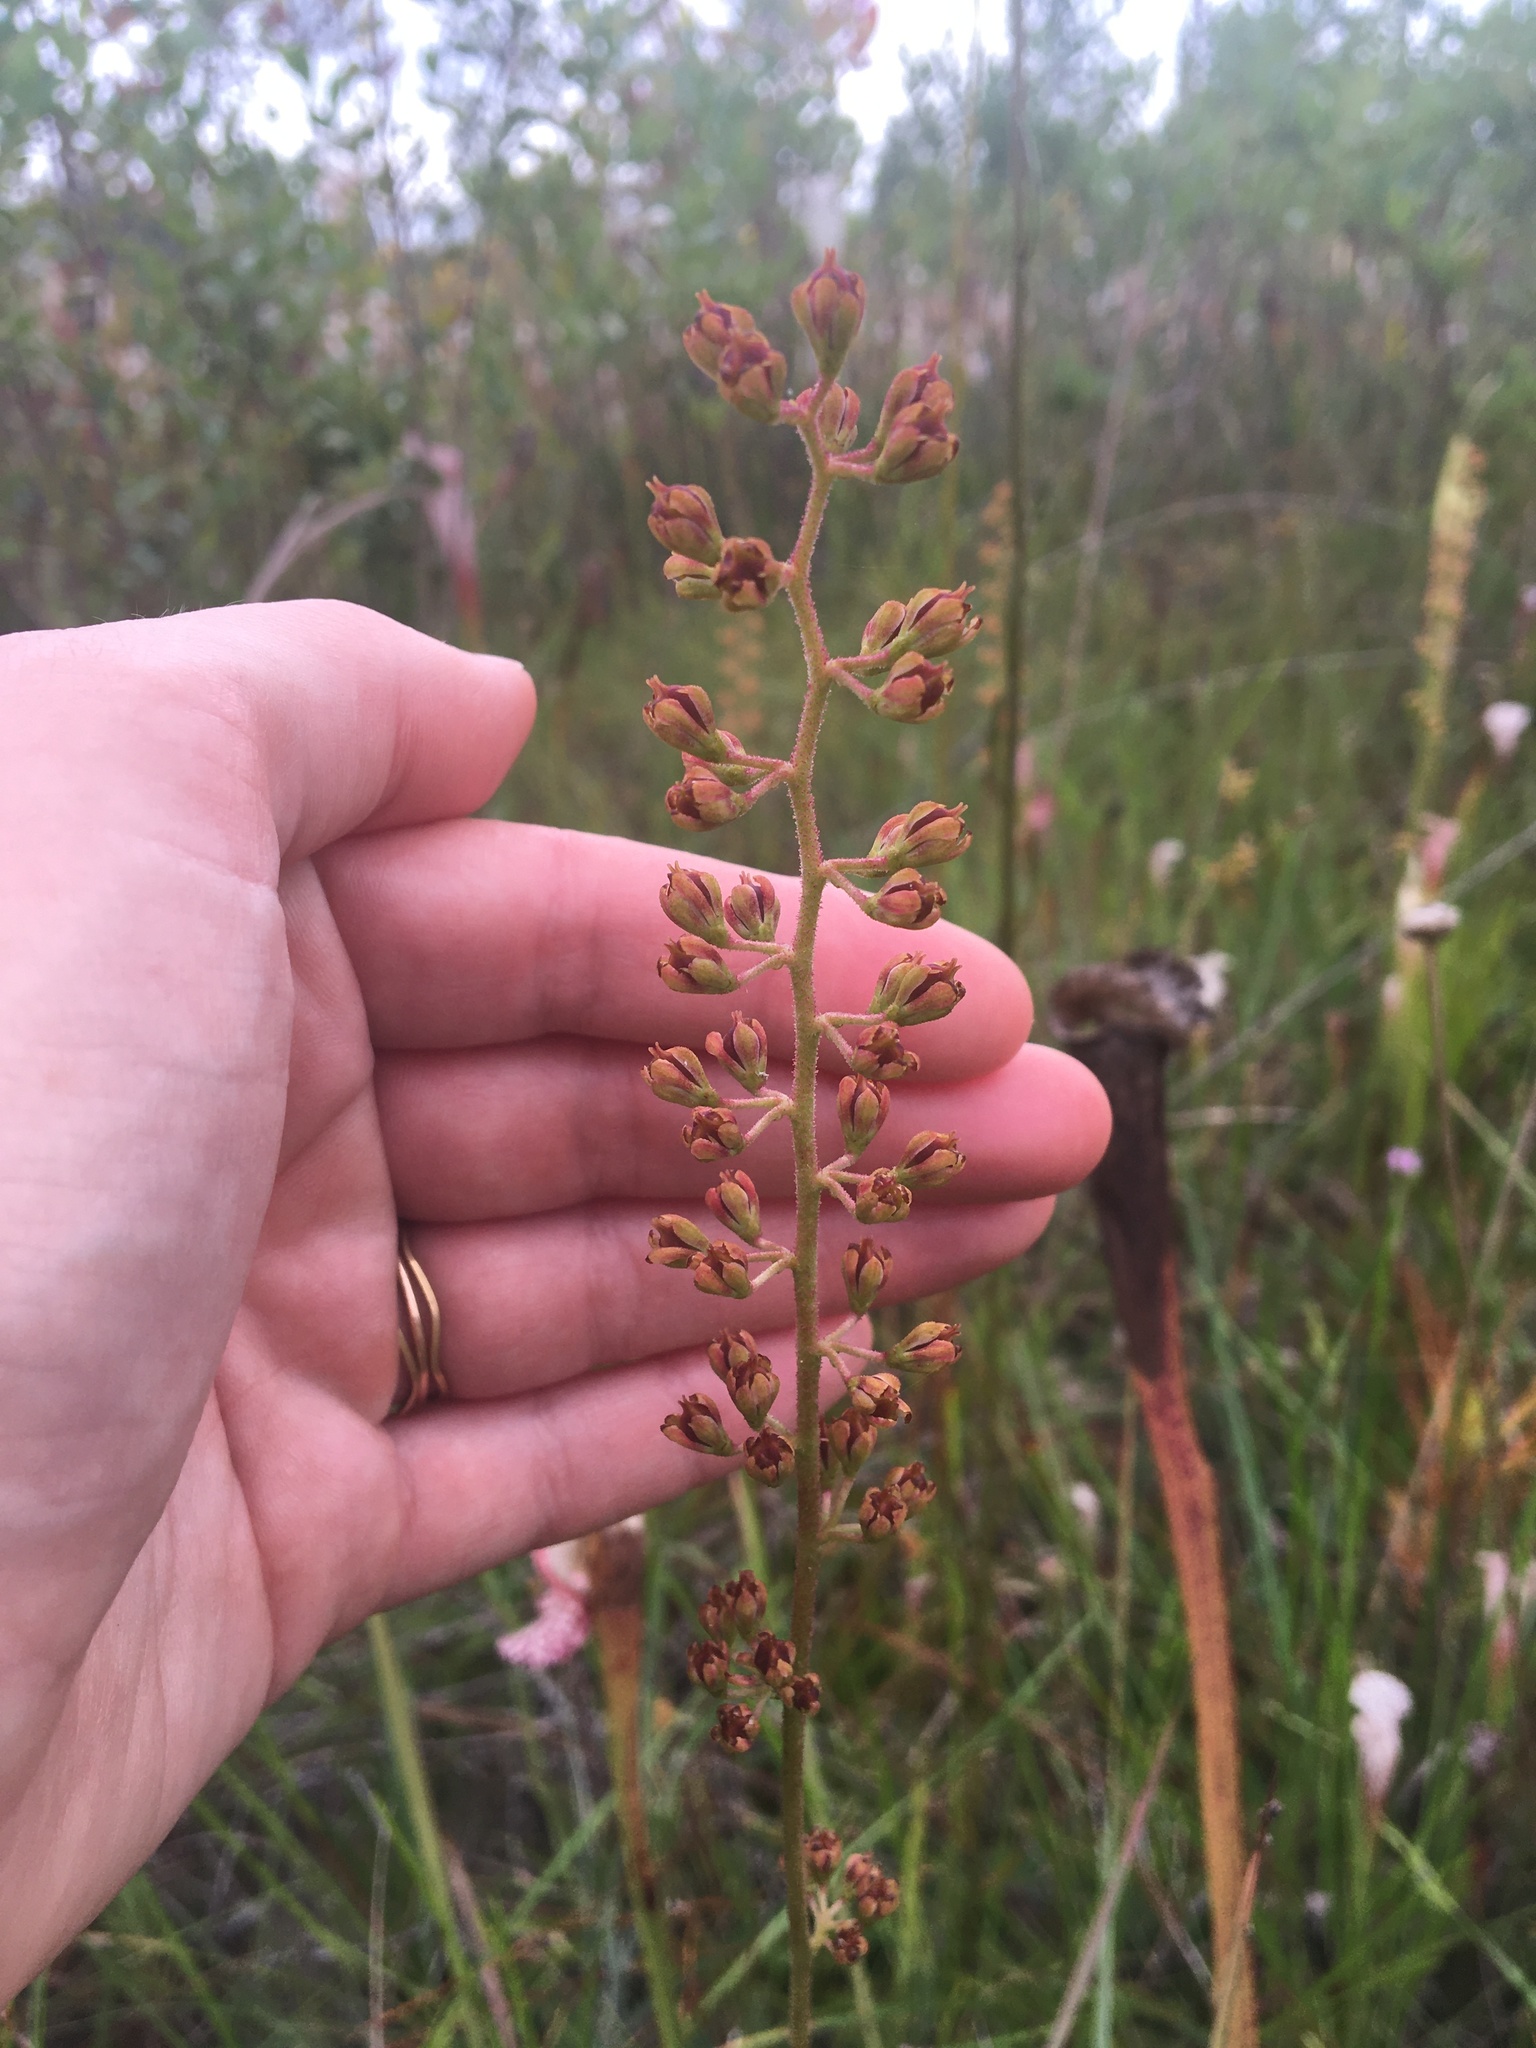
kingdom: Plantae
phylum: Tracheophyta
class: Liliopsida
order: Alismatales
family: Tofieldiaceae
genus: Triantha
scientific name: Triantha racemosa
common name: Coastal false asphodel
